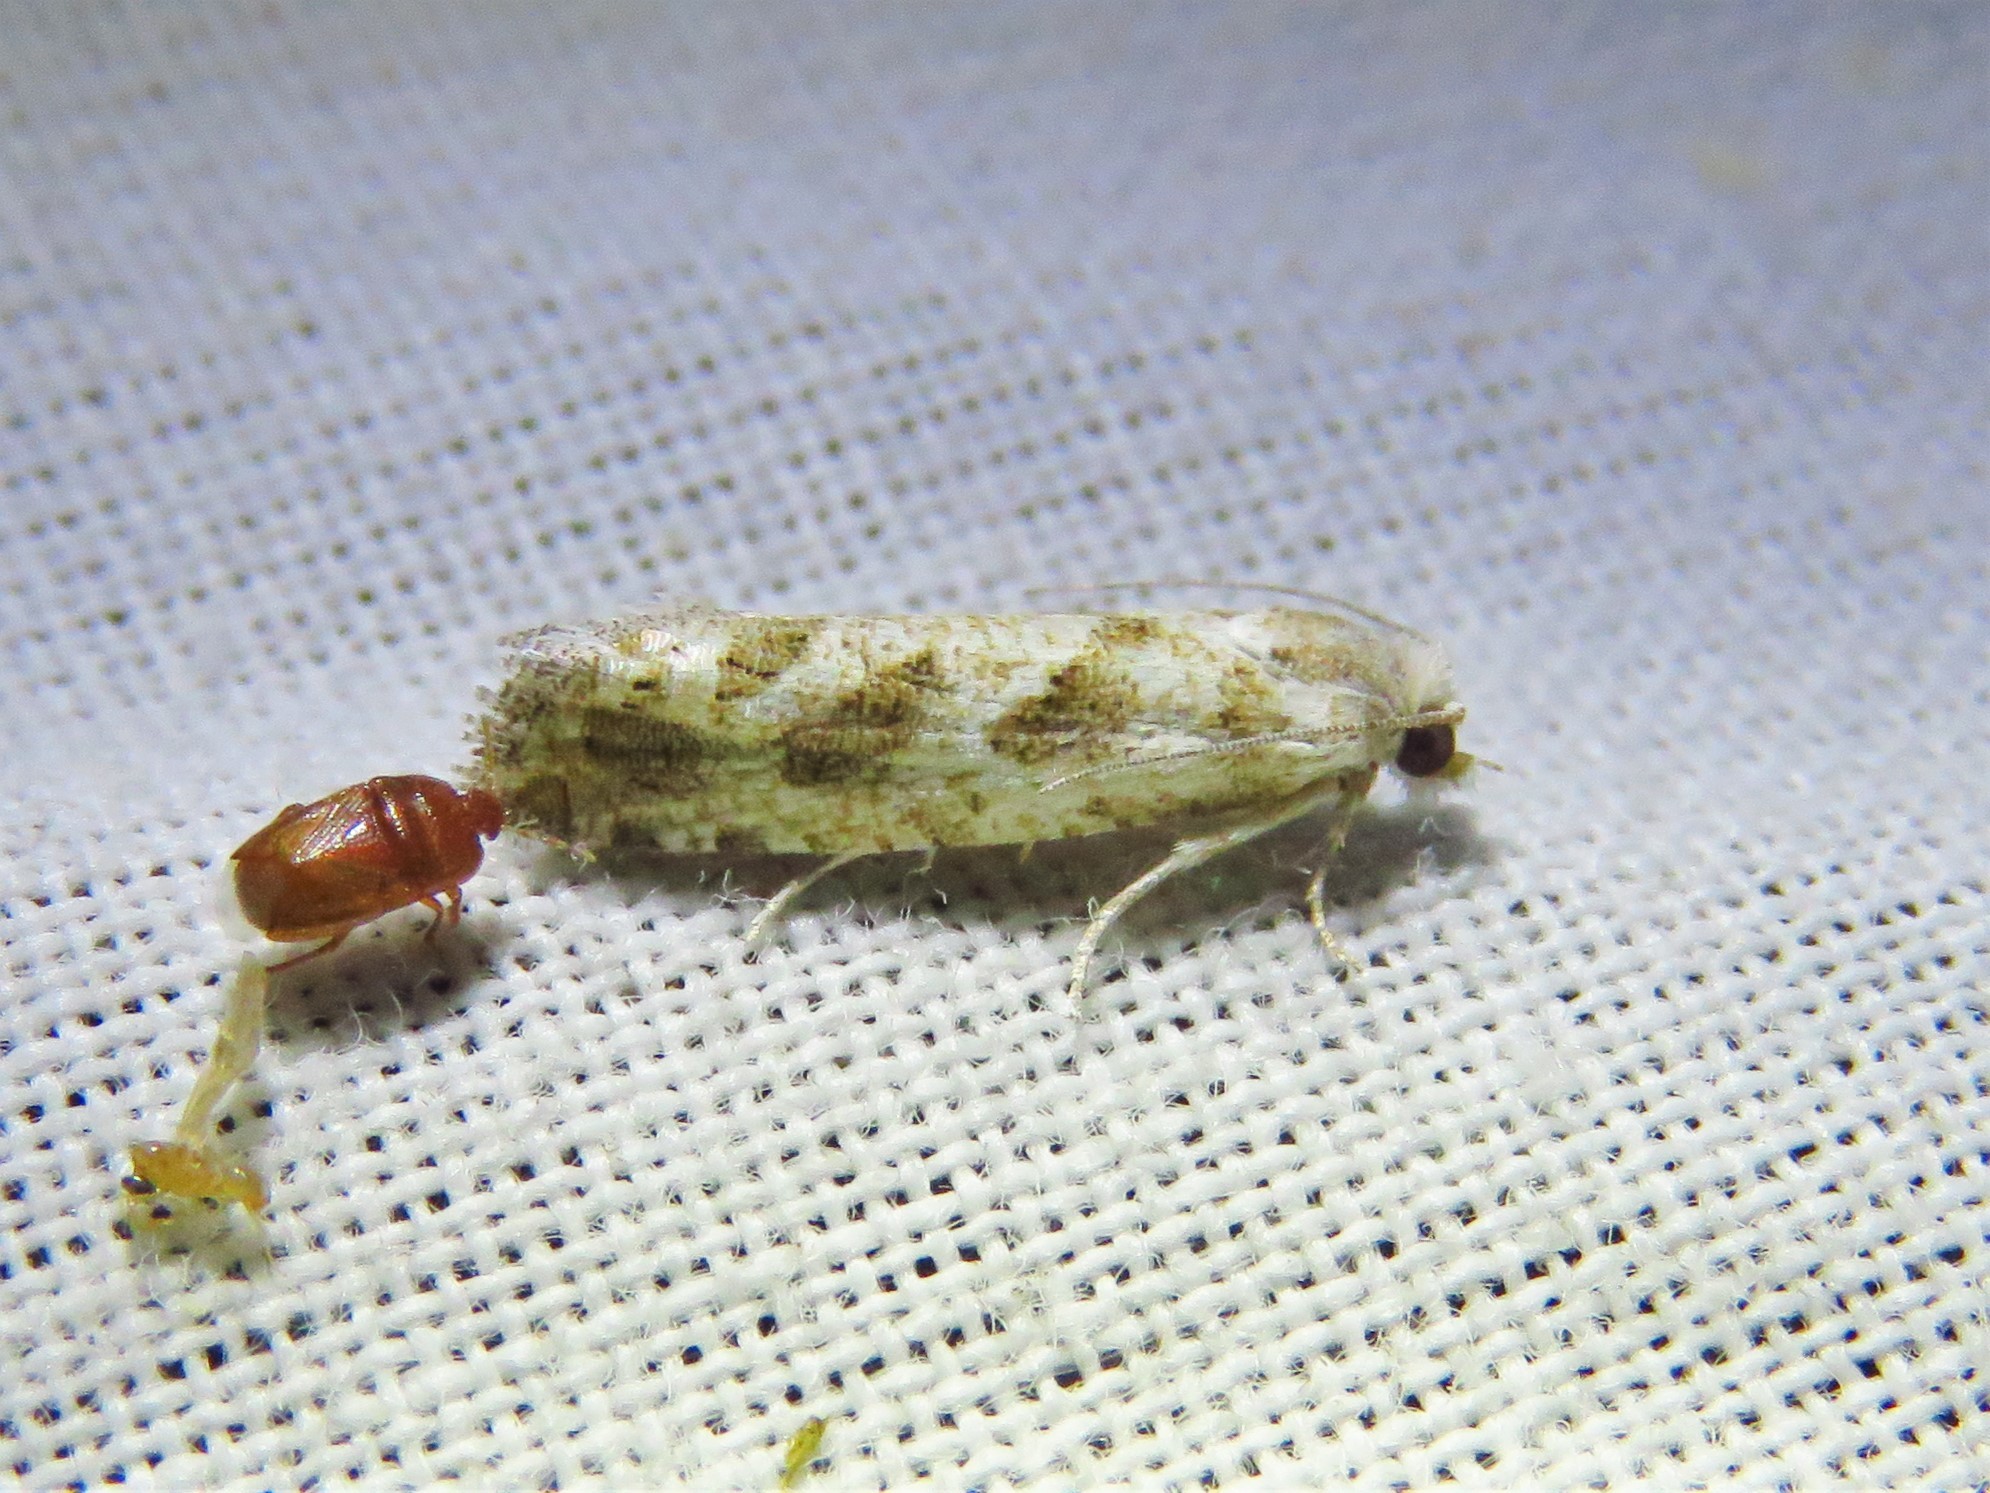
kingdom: Animalia
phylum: Arthropoda
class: Insecta
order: Lepidoptera
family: Tortricidae
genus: Pelochrista
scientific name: Pelochrista reversana
